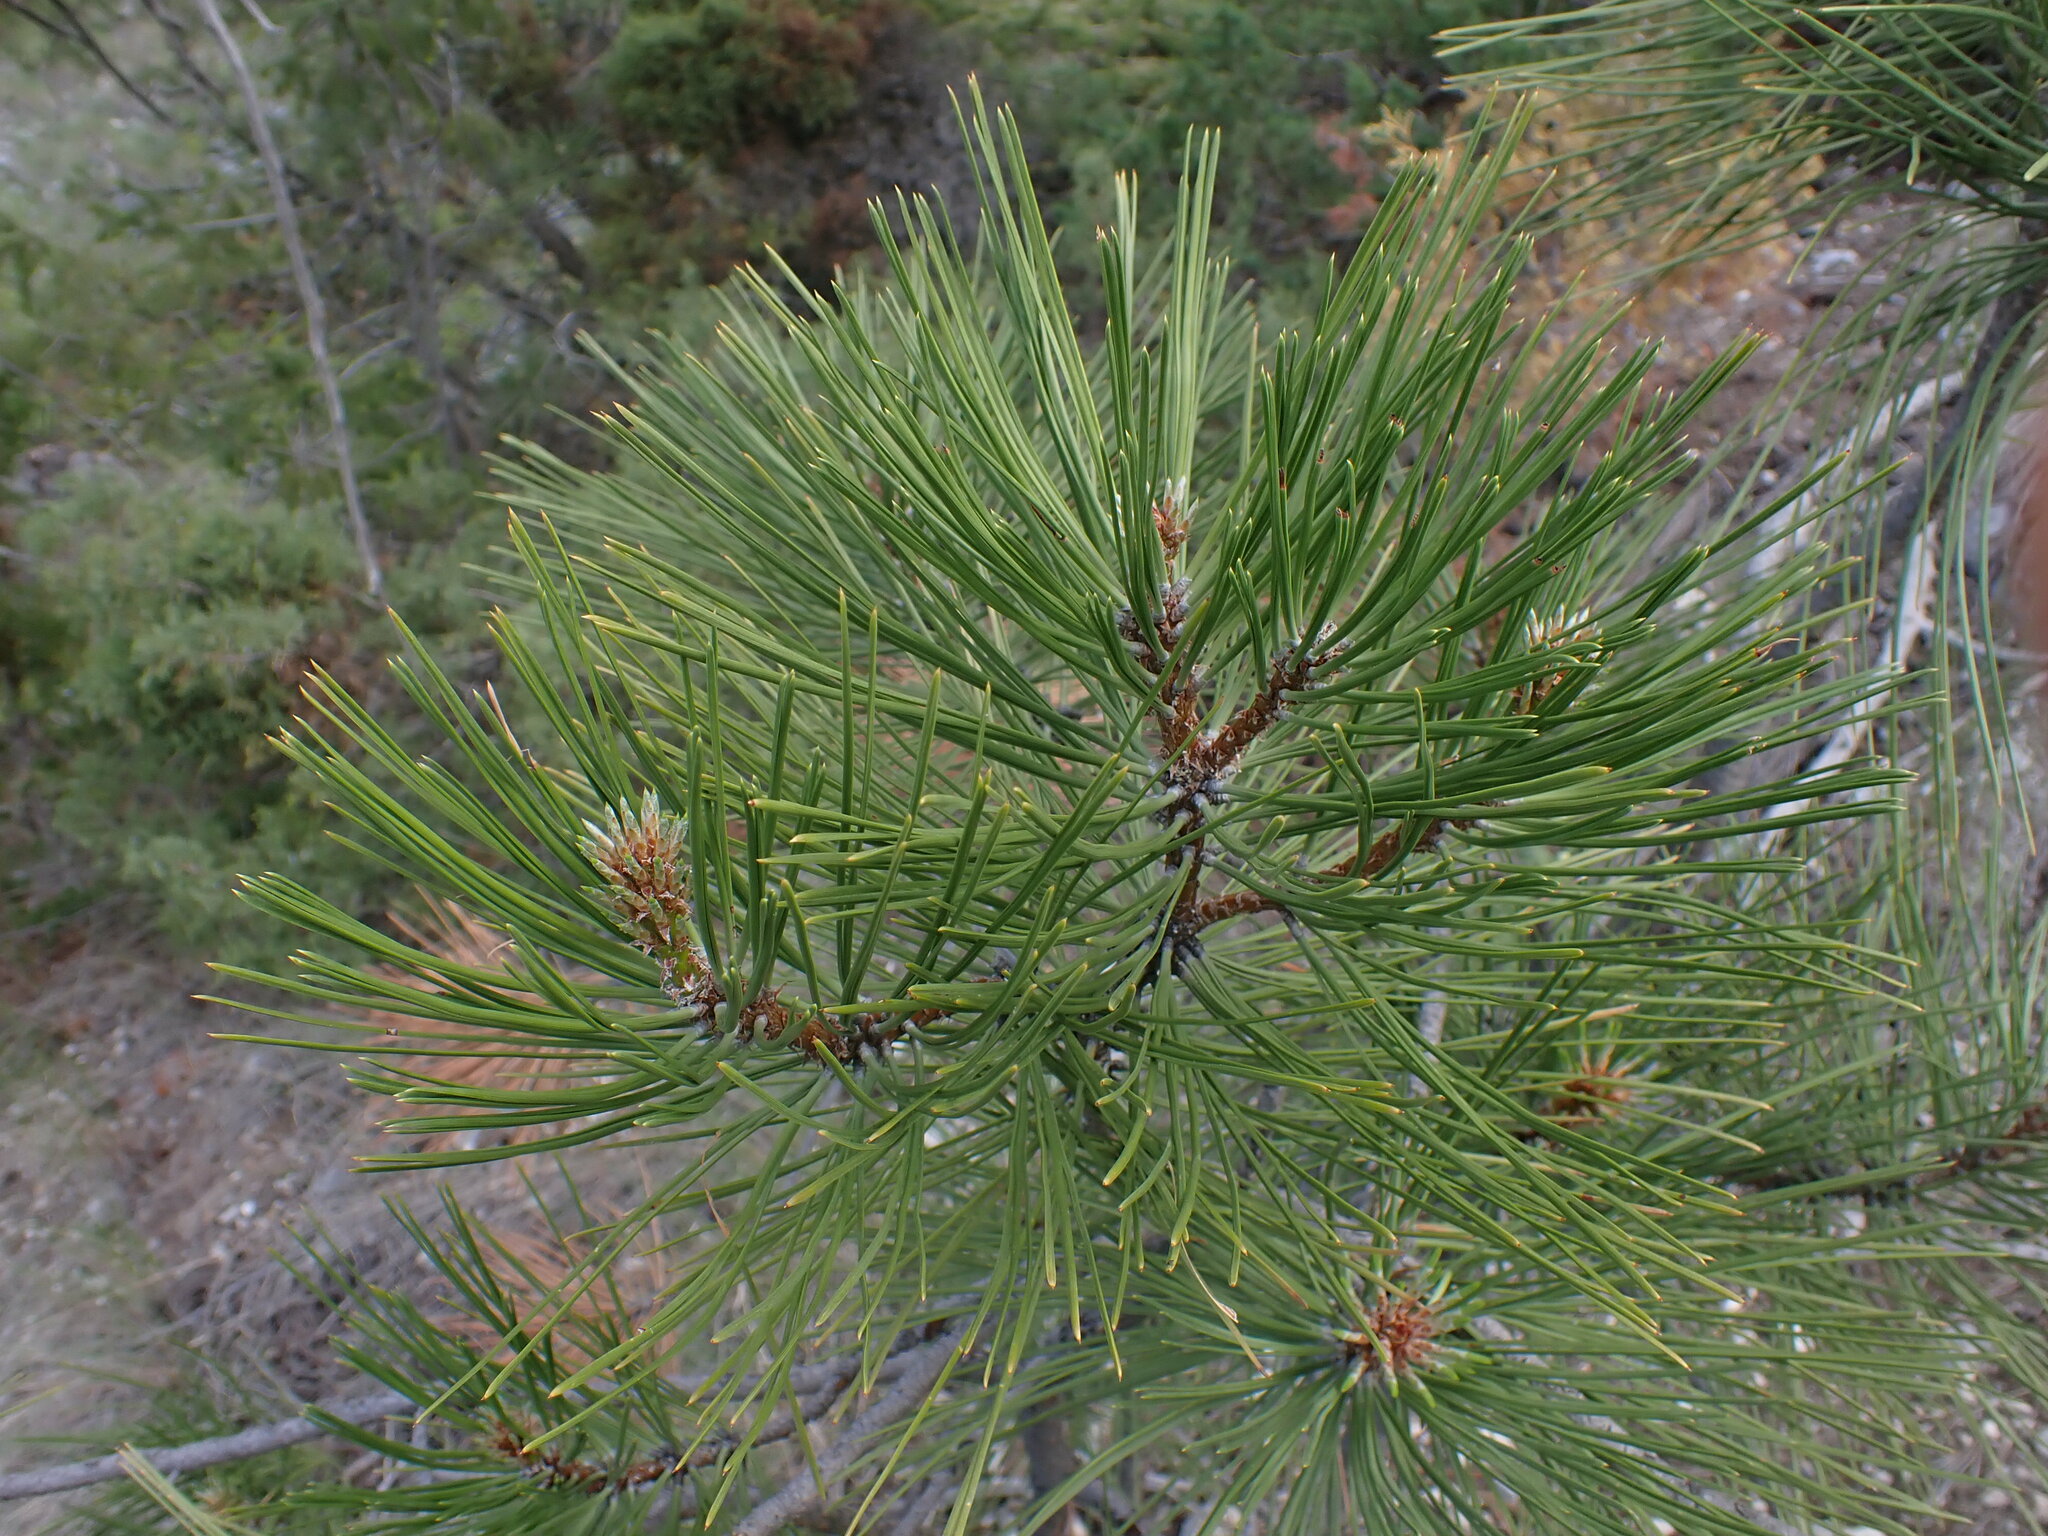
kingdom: Plantae
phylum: Tracheophyta
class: Pinopsida
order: Pinales
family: Pinaceae
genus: Pinus
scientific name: Pinus ponderosa
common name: Western yellow-pine
